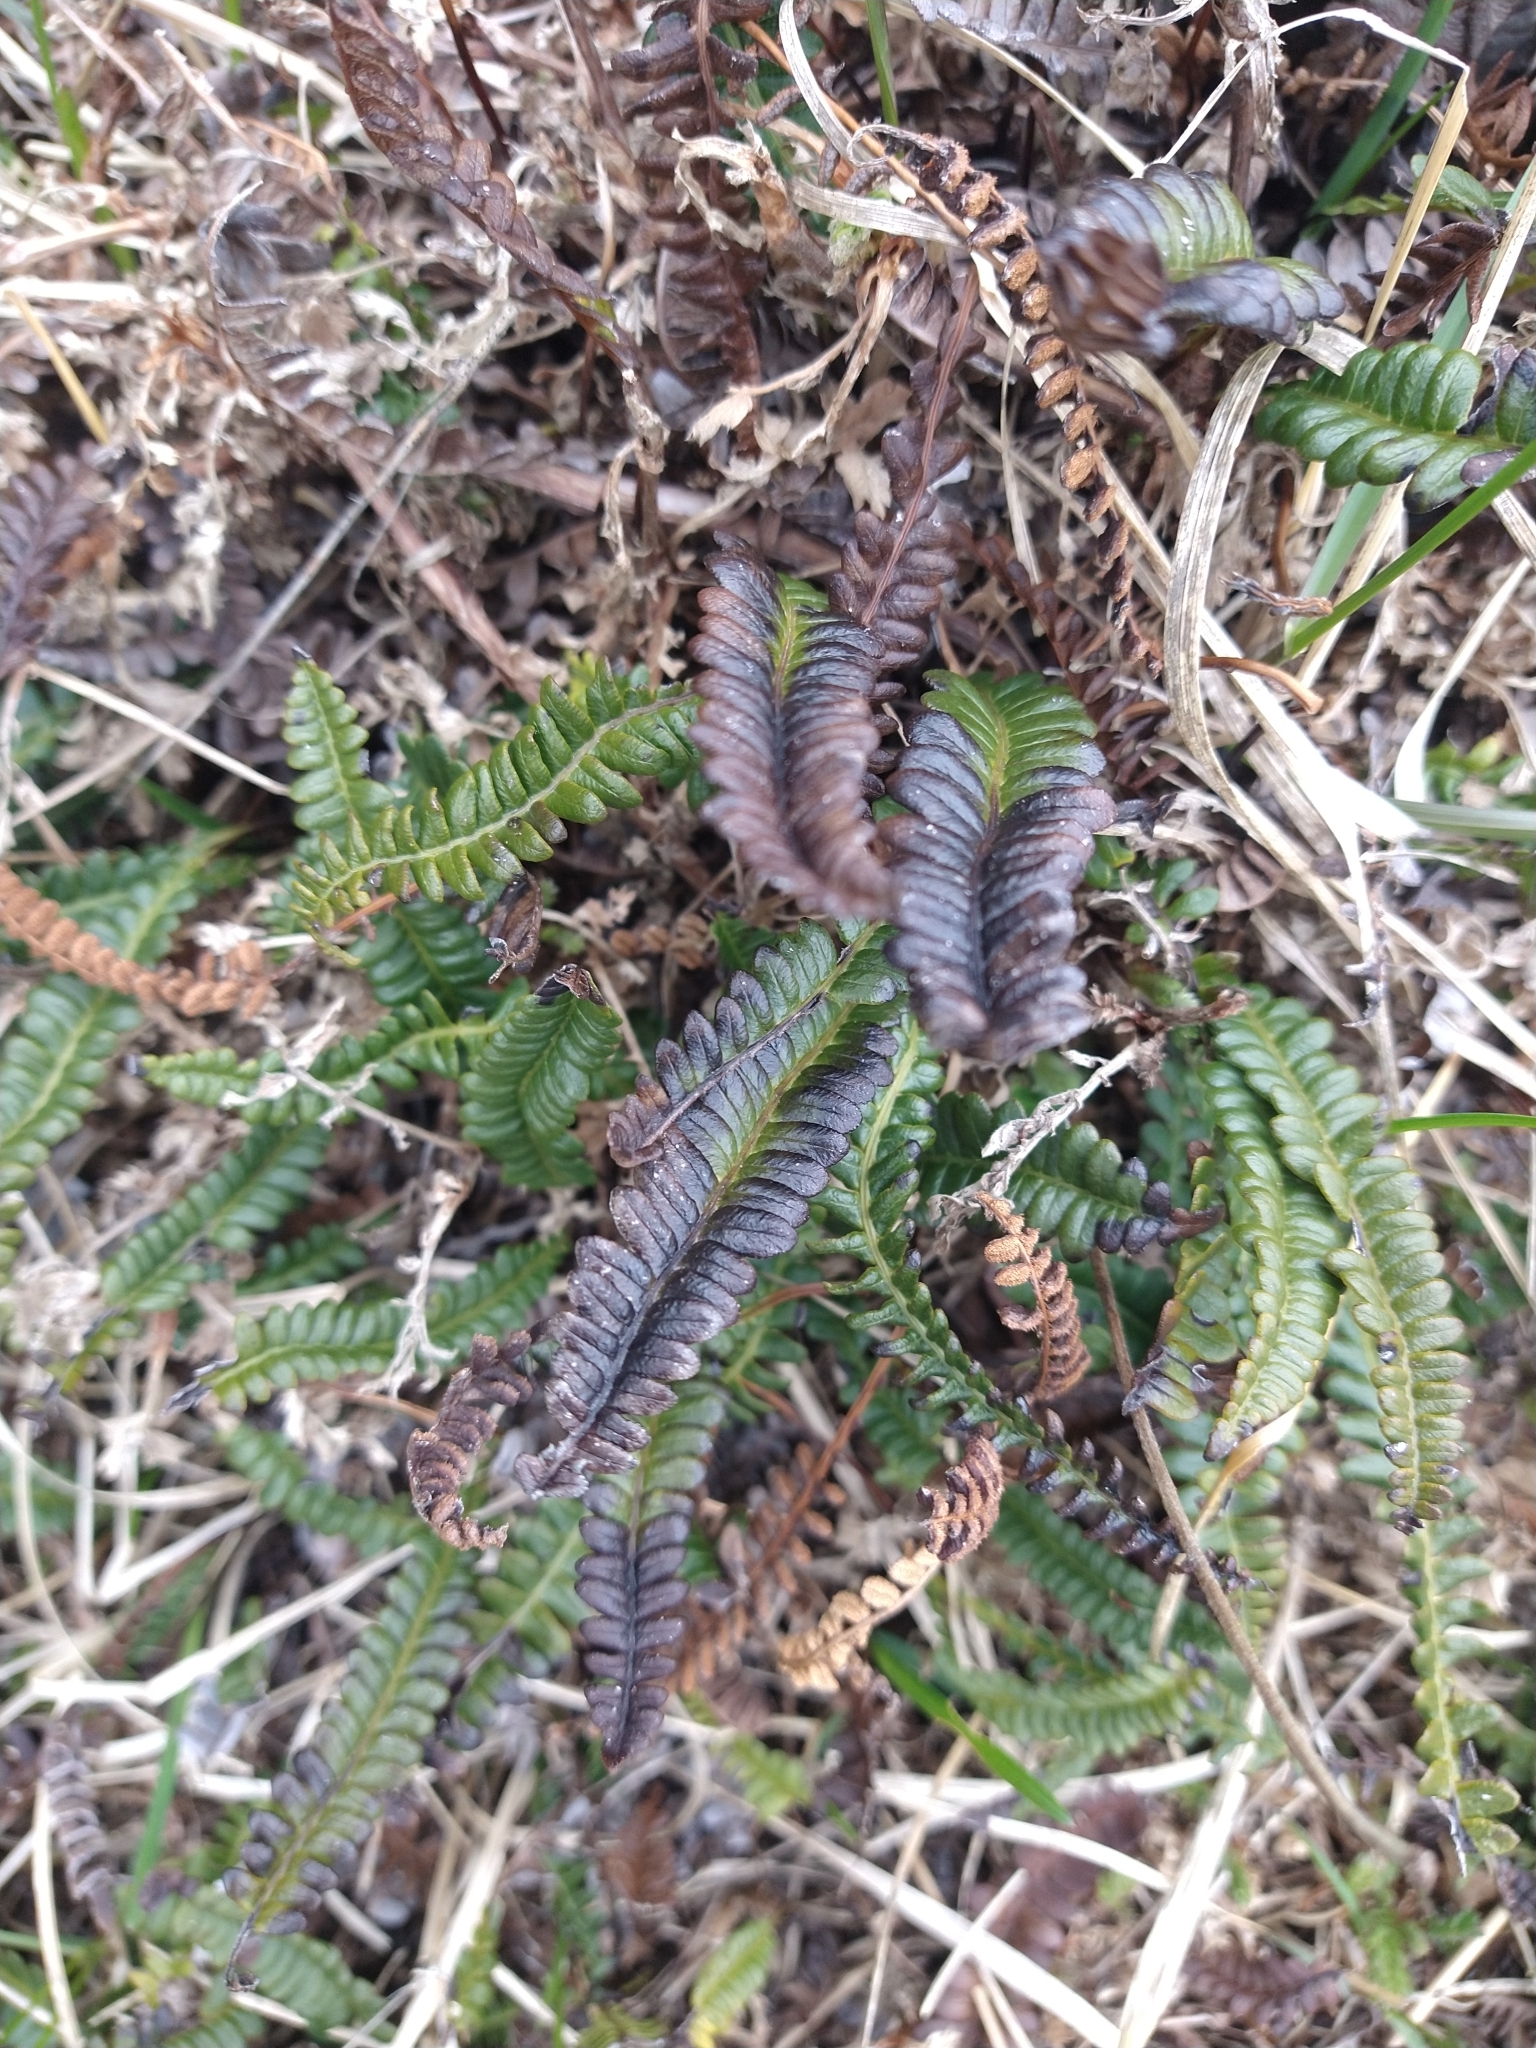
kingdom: Plantae
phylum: Tracheophyta
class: Polypodiopsida
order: Polypodiales
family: Blechnaceae
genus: Austroblechnum
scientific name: Austroblechnum penna-marina
